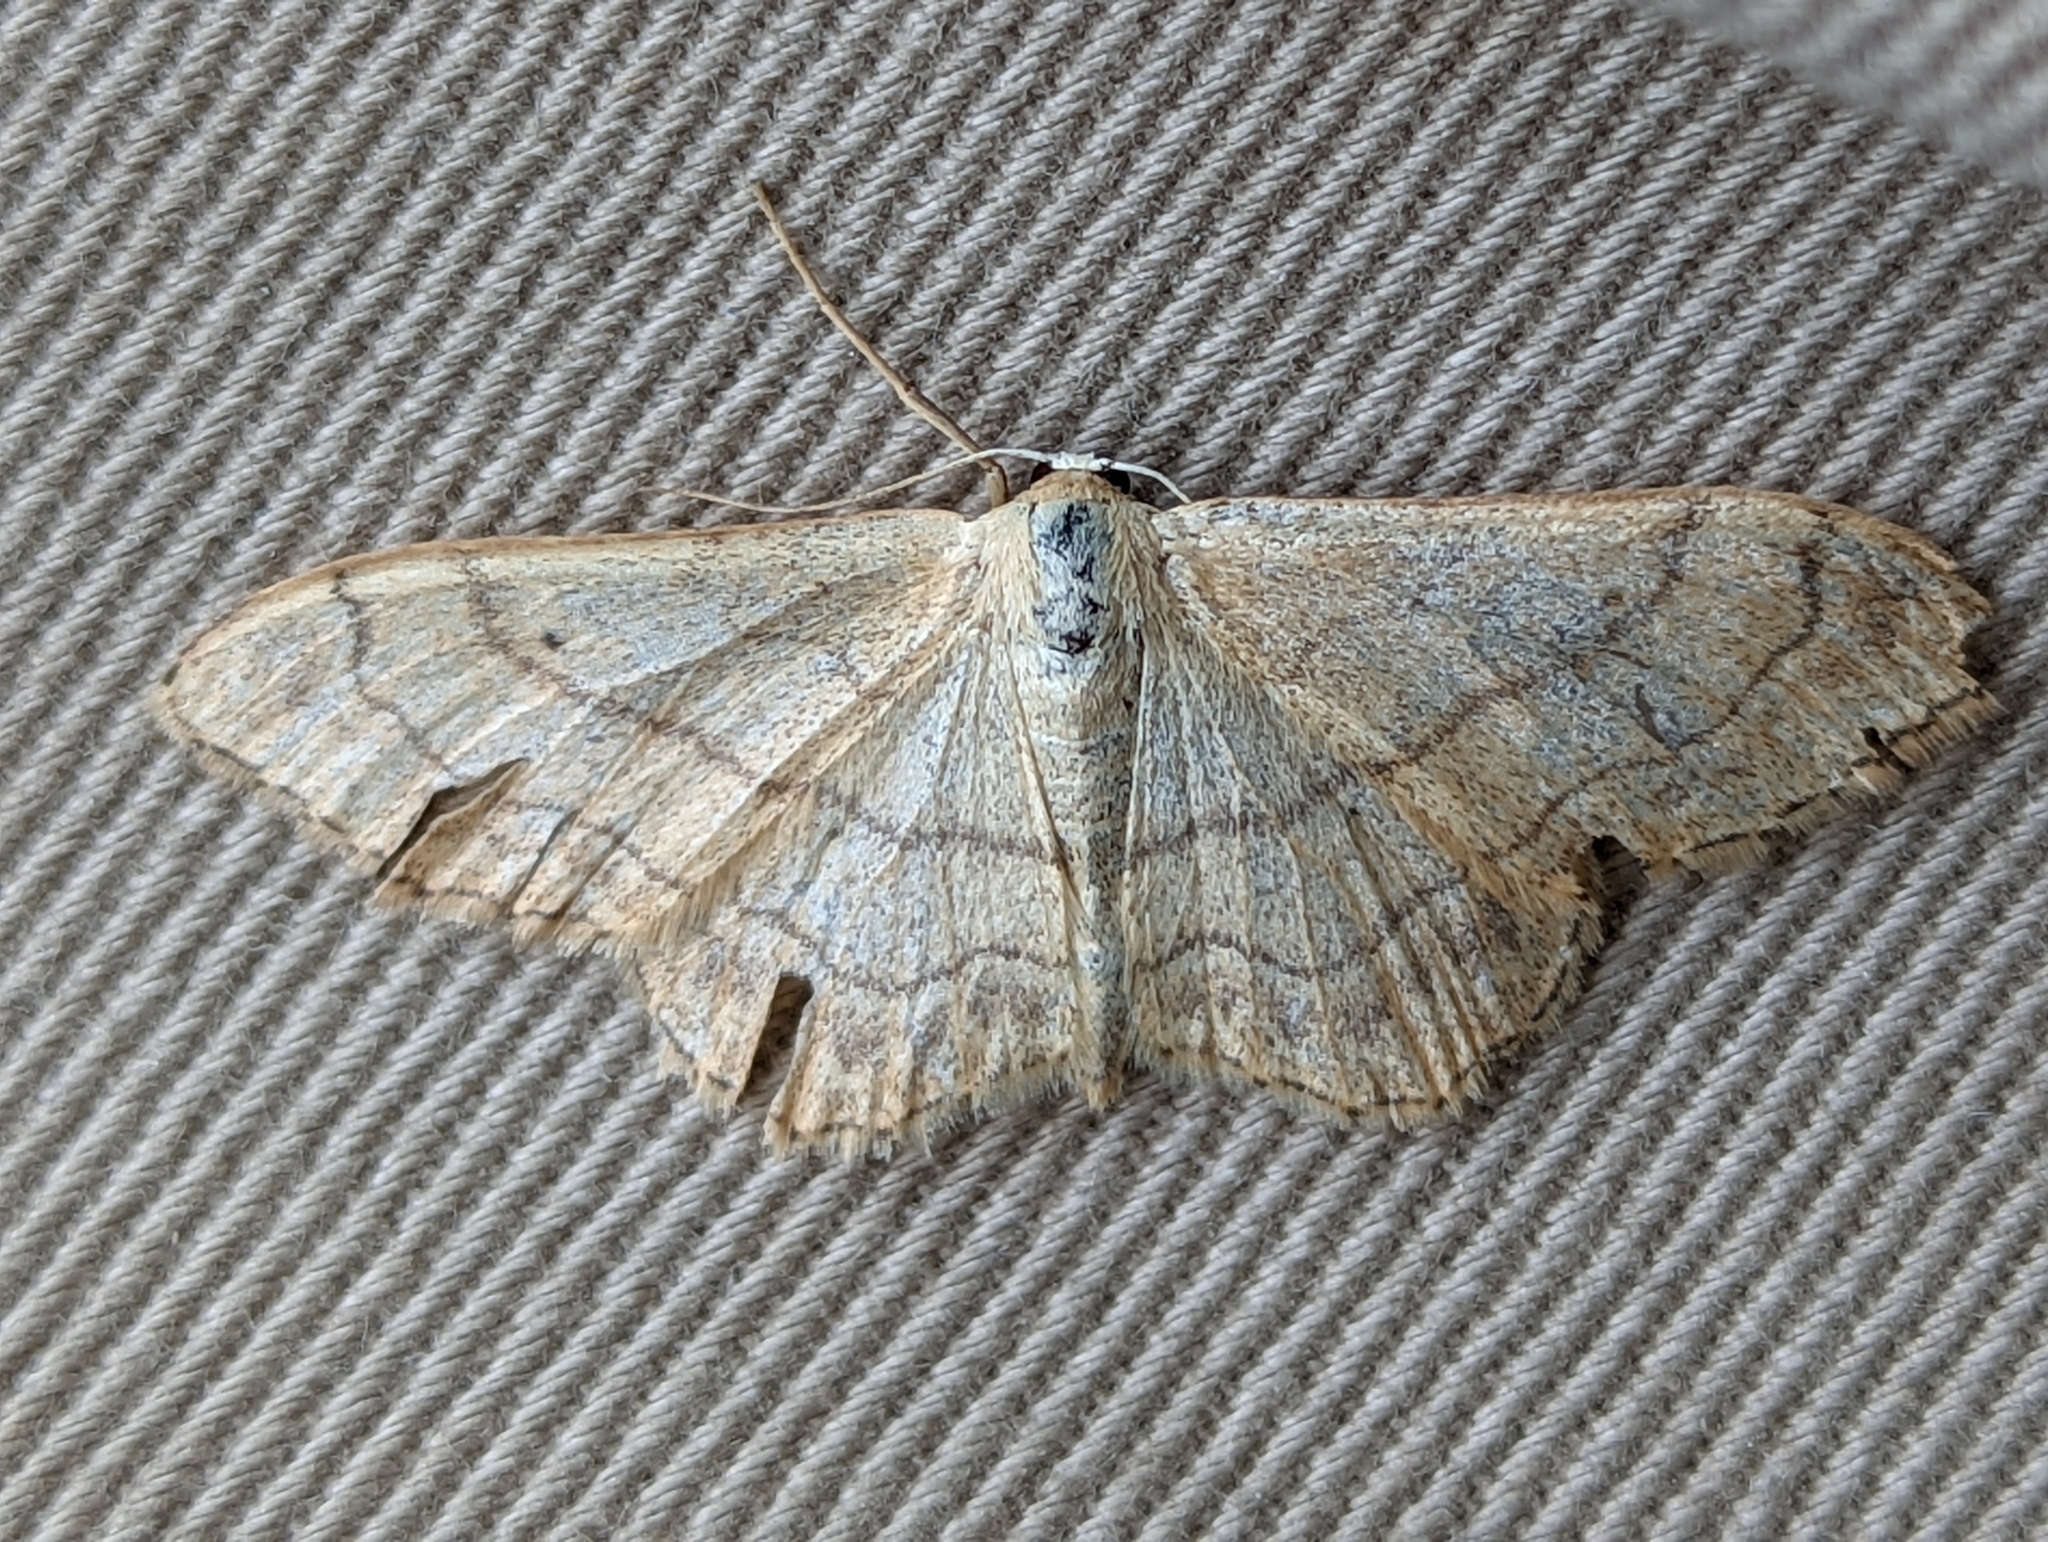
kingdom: Animalia
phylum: Arthropoda
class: Insecta
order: Lepidoptera
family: Geometridae
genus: Idaea
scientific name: Idaea aversata
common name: Riband wave
